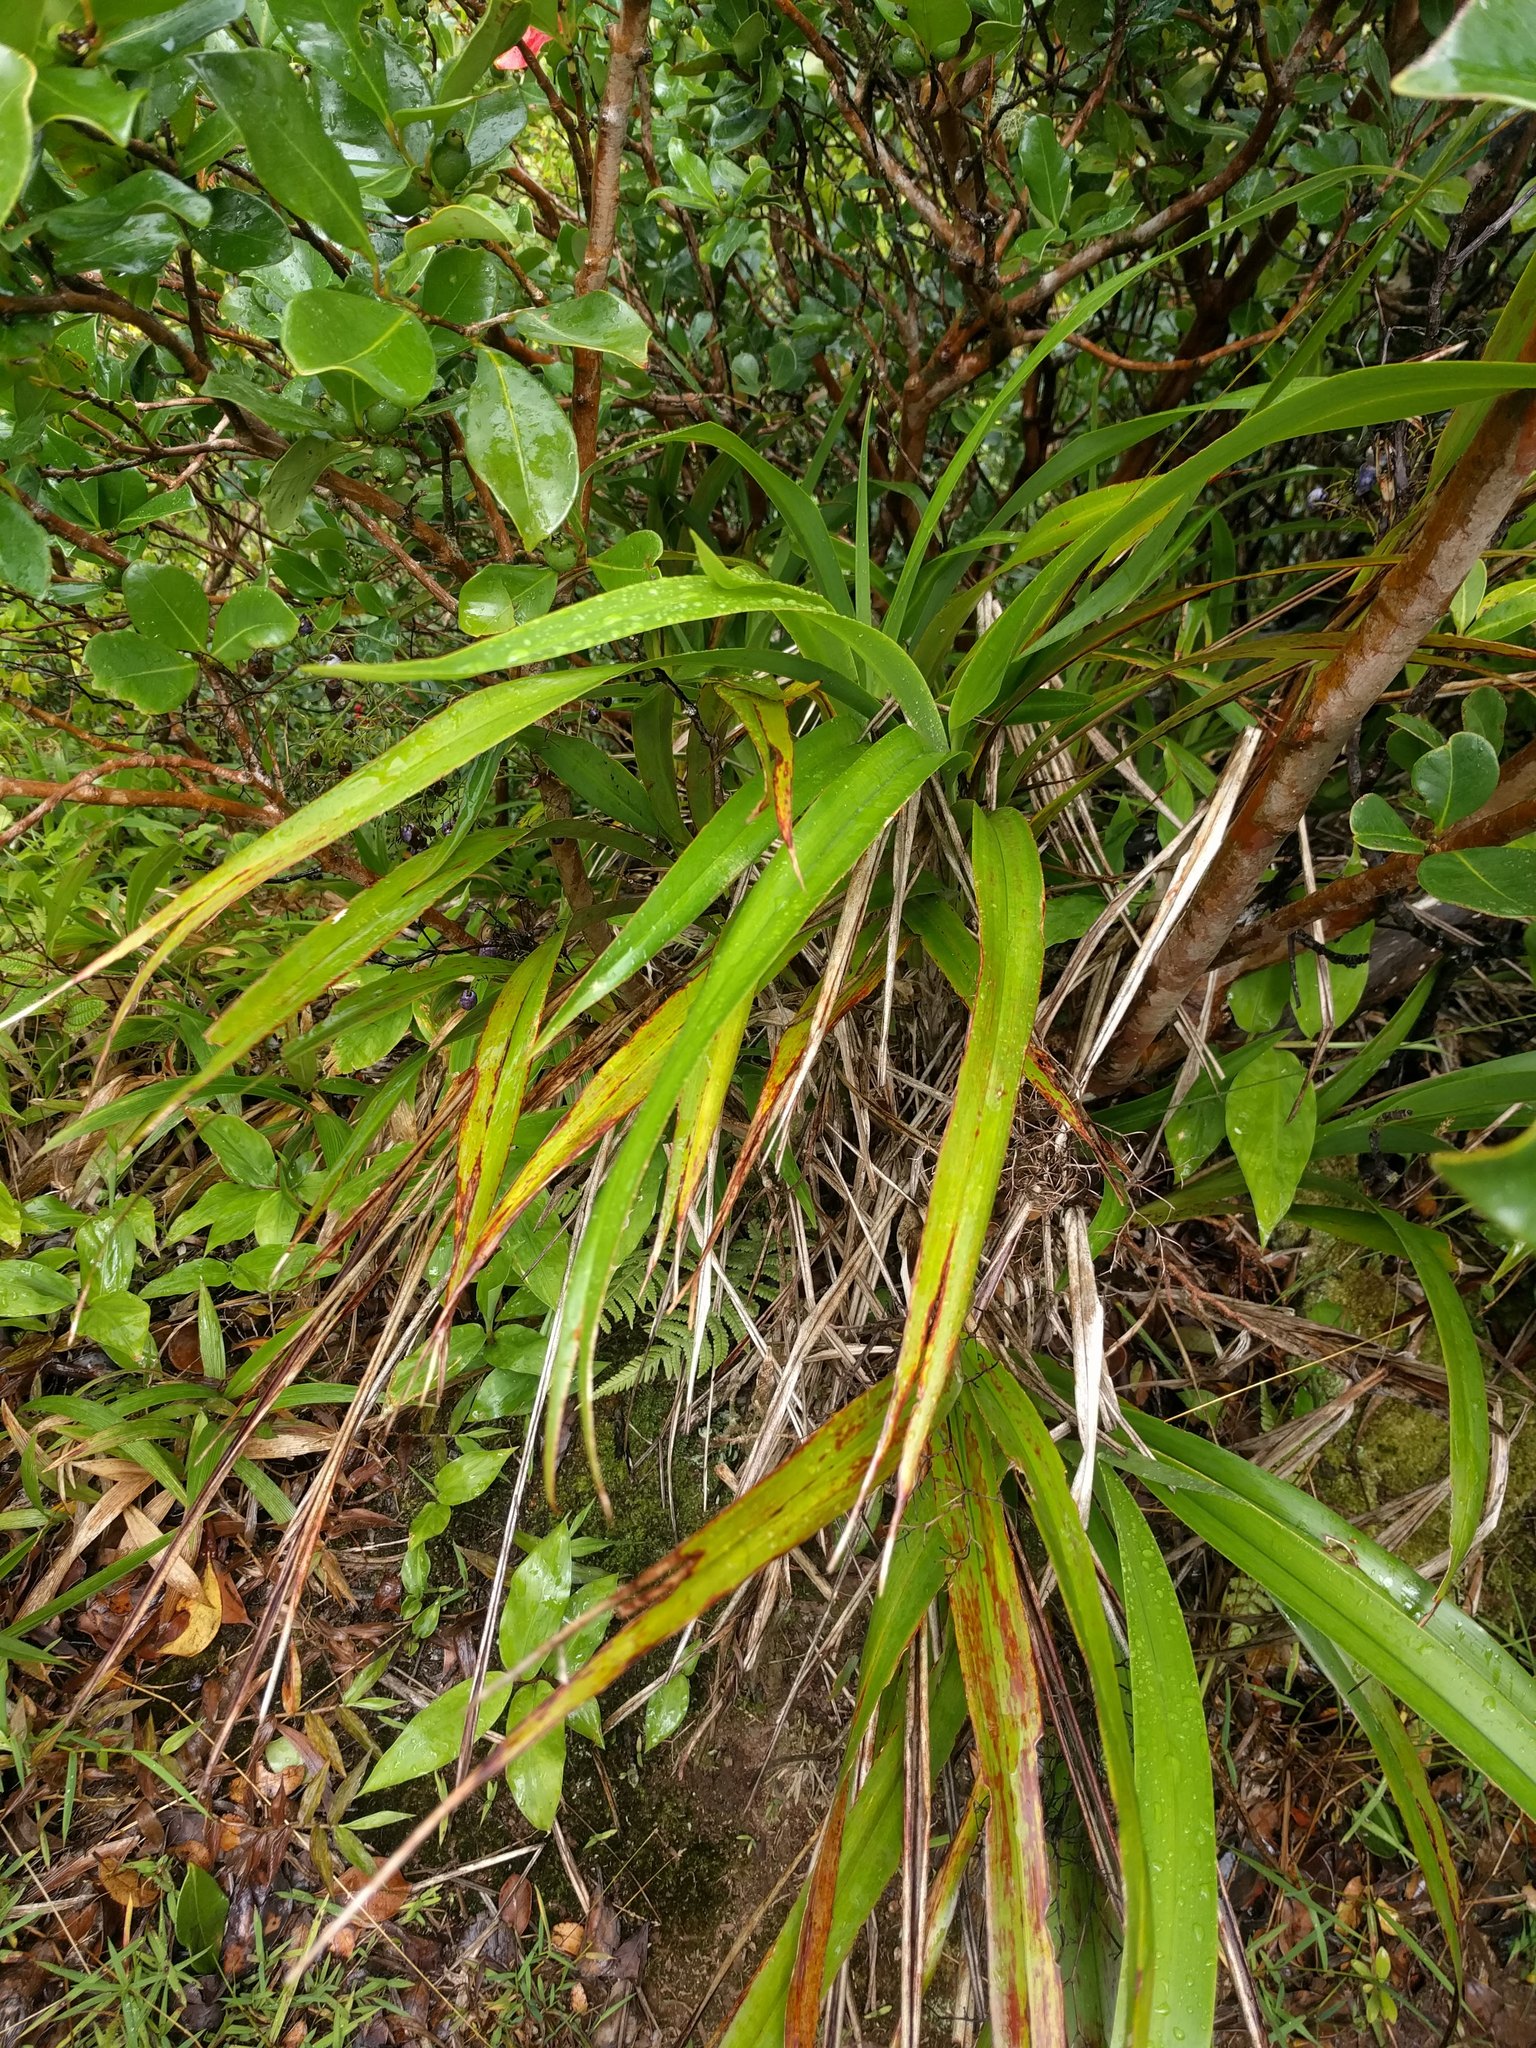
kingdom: Plantae
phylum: Tracheophyta
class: Liliopsida
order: Asparagales
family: Asphodelaceae
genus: Dianella
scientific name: Dianella sandwicensis
